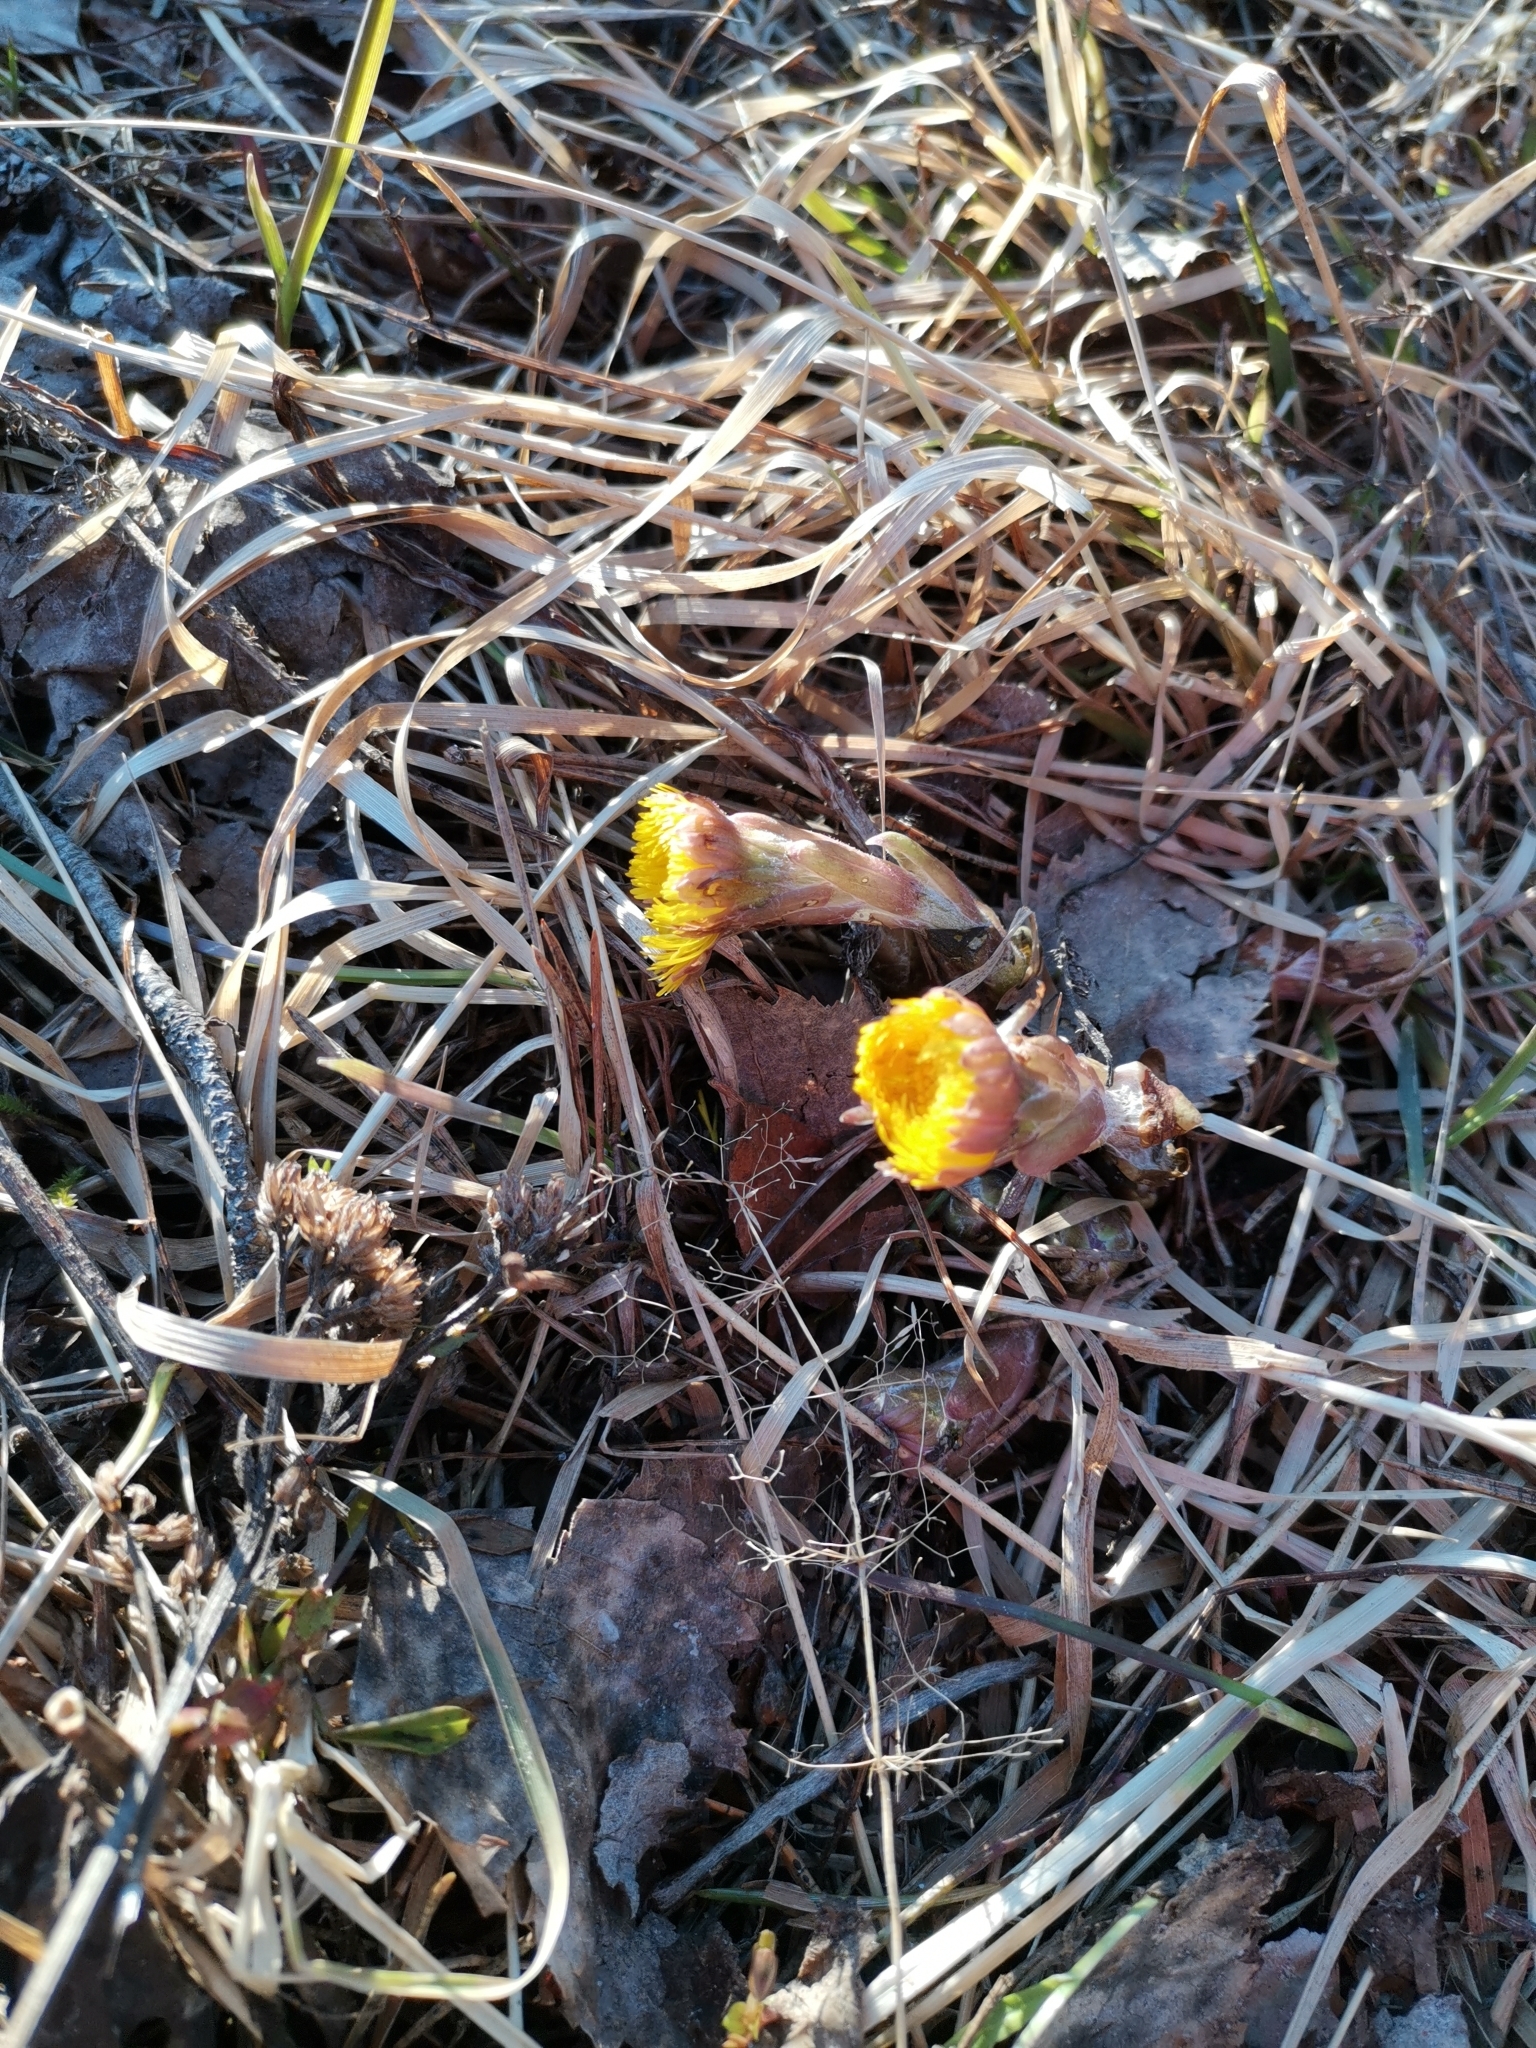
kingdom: Plantae
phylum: Tracheophyta
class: Magnoliopsida
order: Asterales
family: Asteraceae
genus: Tussilago
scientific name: Tussilago farfara
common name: Coltsfoot
